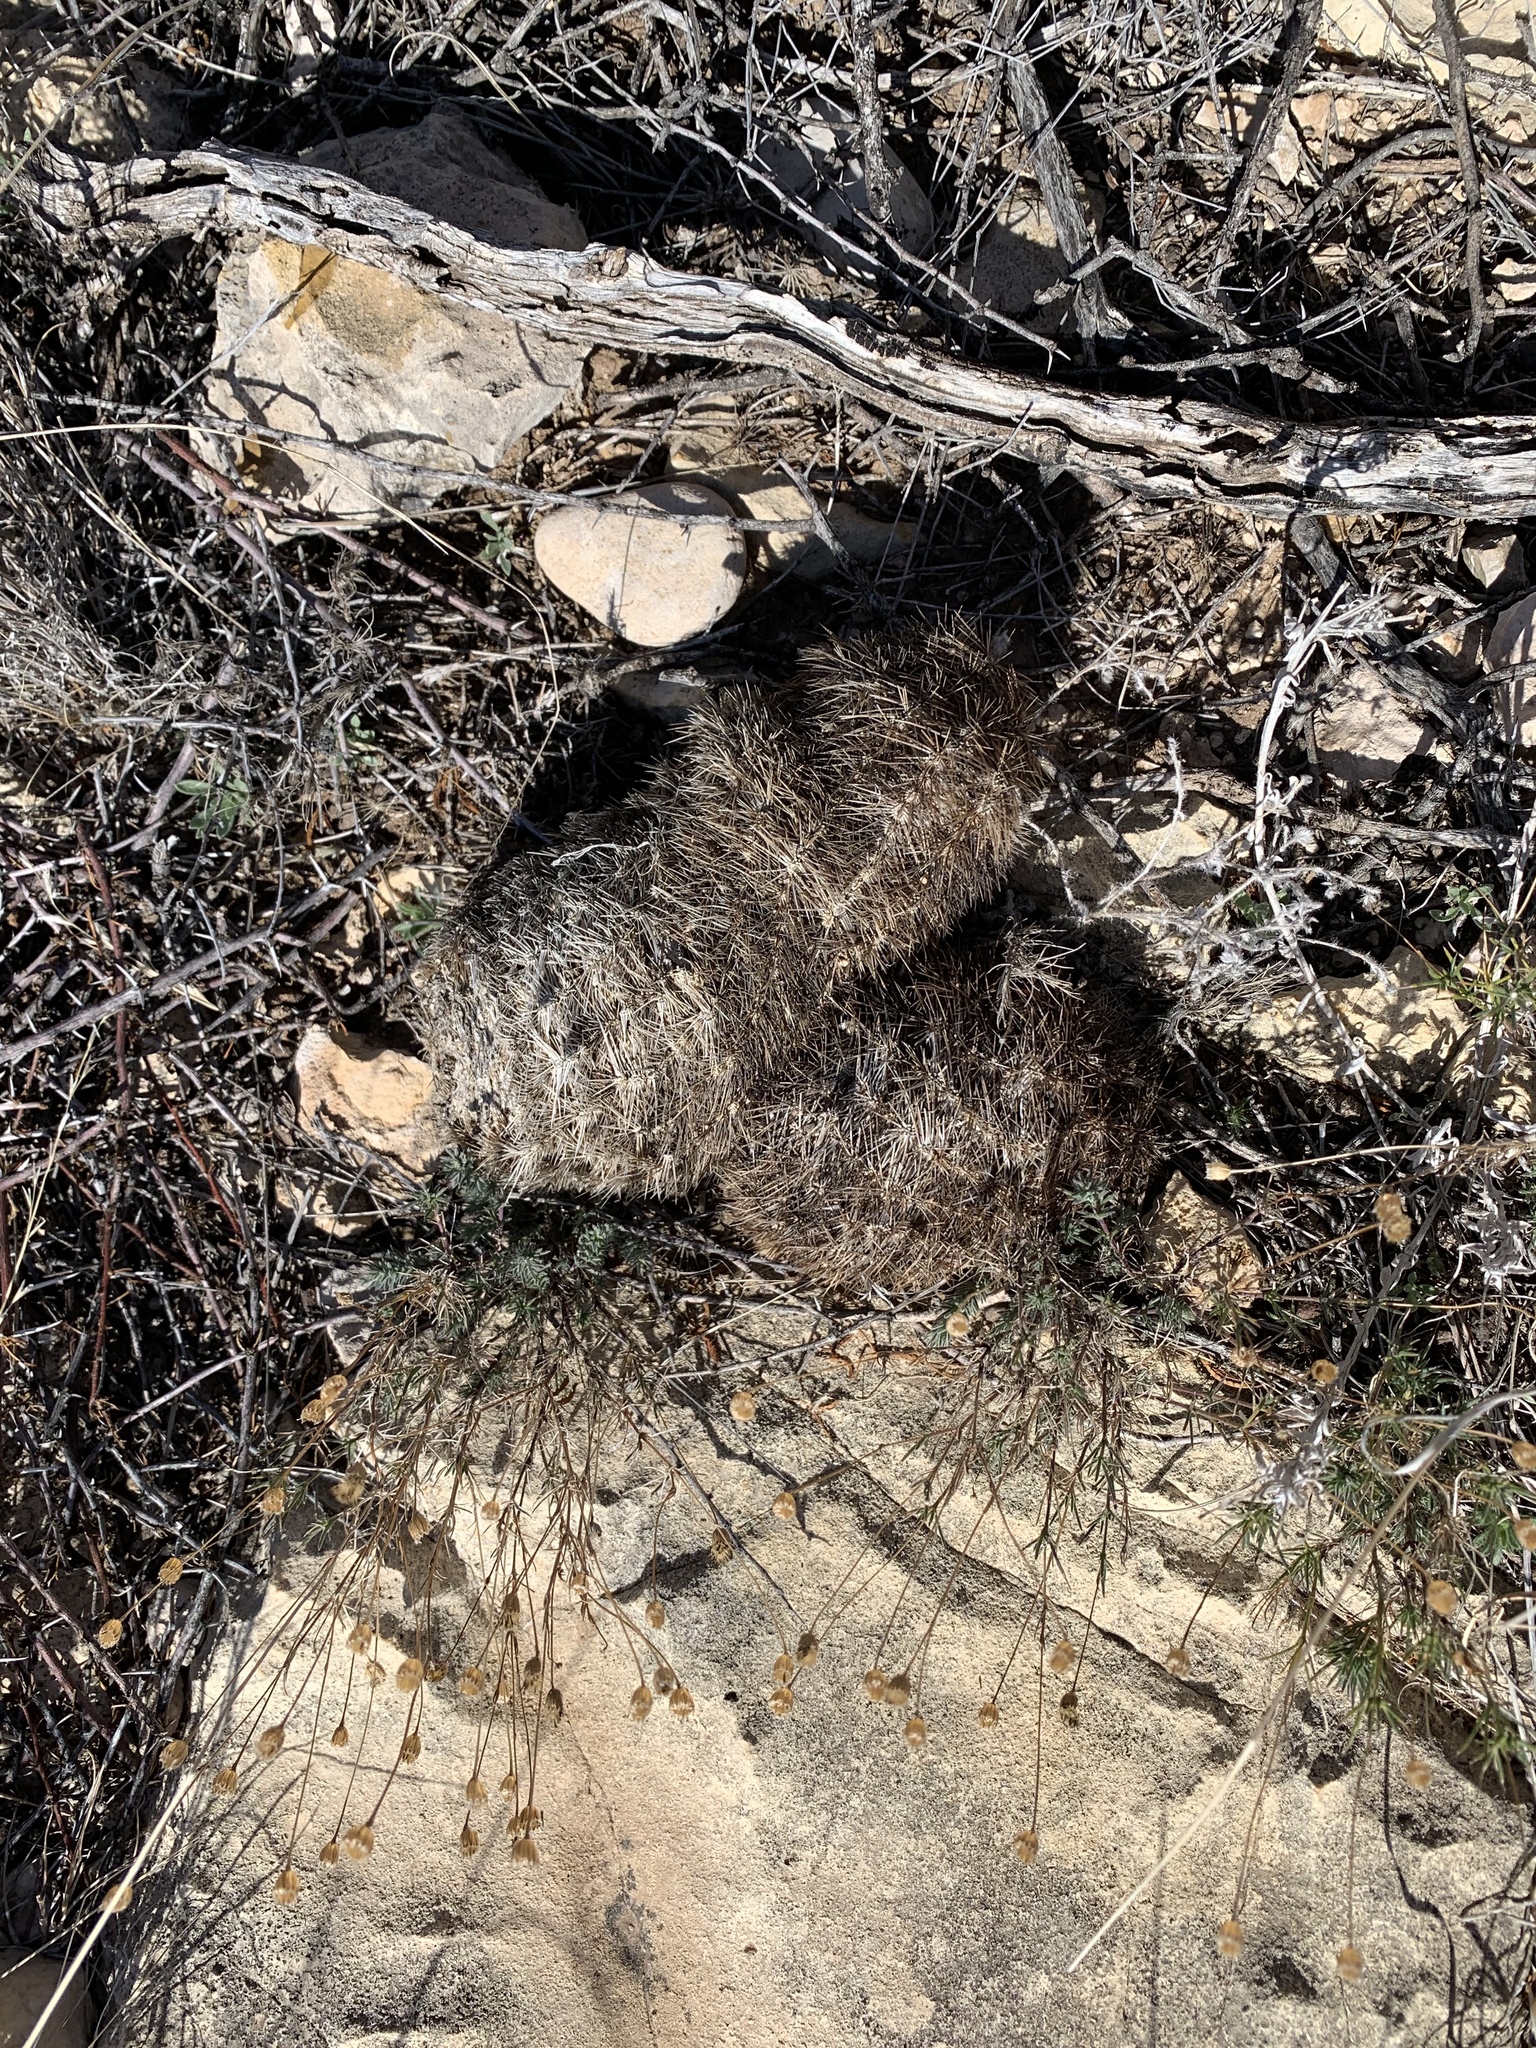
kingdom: Plantae
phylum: Tracheophyta
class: Magnoliopsida
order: Caryophyllales
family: Cactaceae
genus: Echinocereus
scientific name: Echinocereus dasyacanthus
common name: Spiny hedgehog cactus
